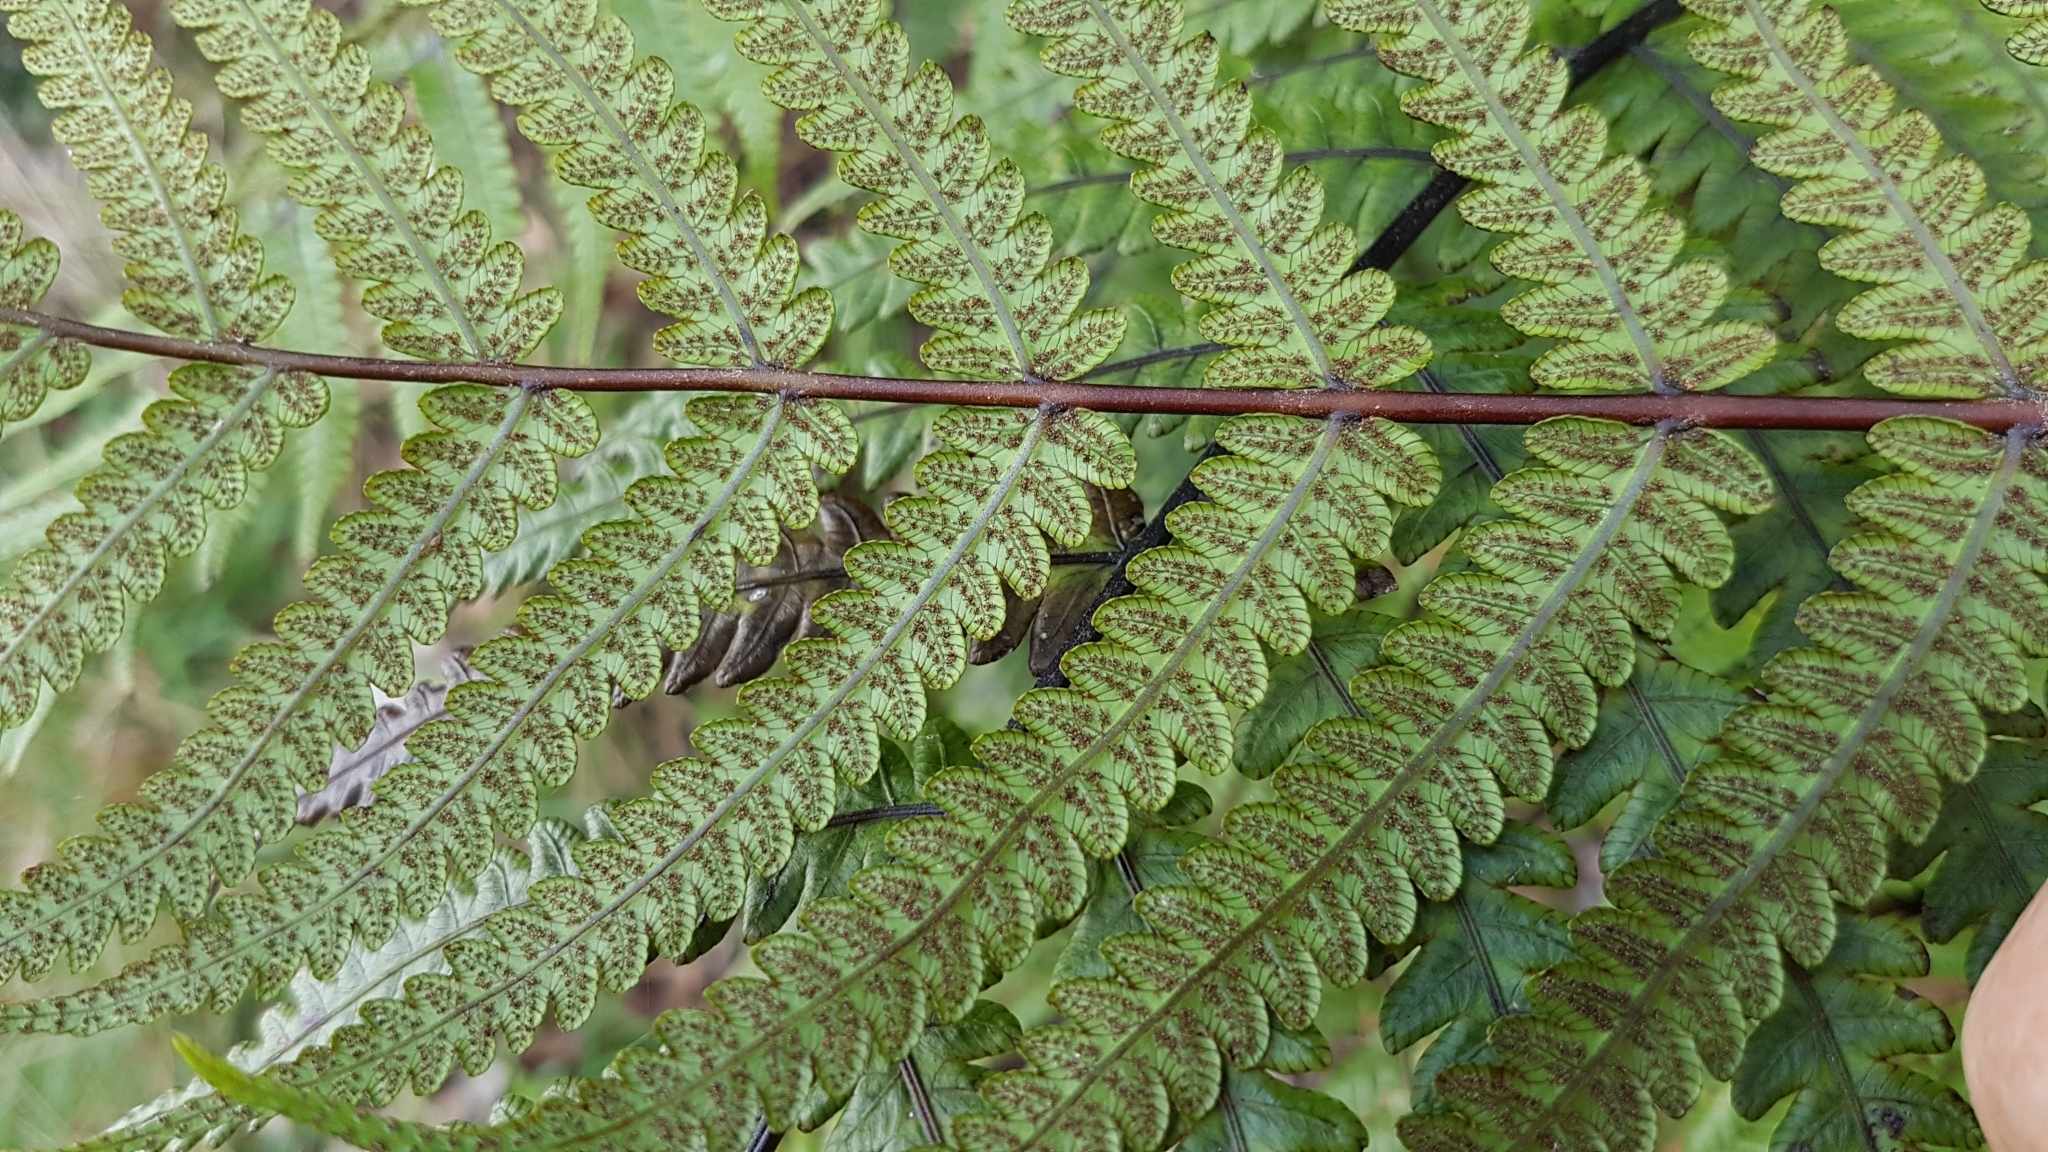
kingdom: Plantae
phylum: Tracheophyta
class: Polypodiopsida
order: Polypodiales
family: Thelypteridaceae
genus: Pakau
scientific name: Pakau pennigera
